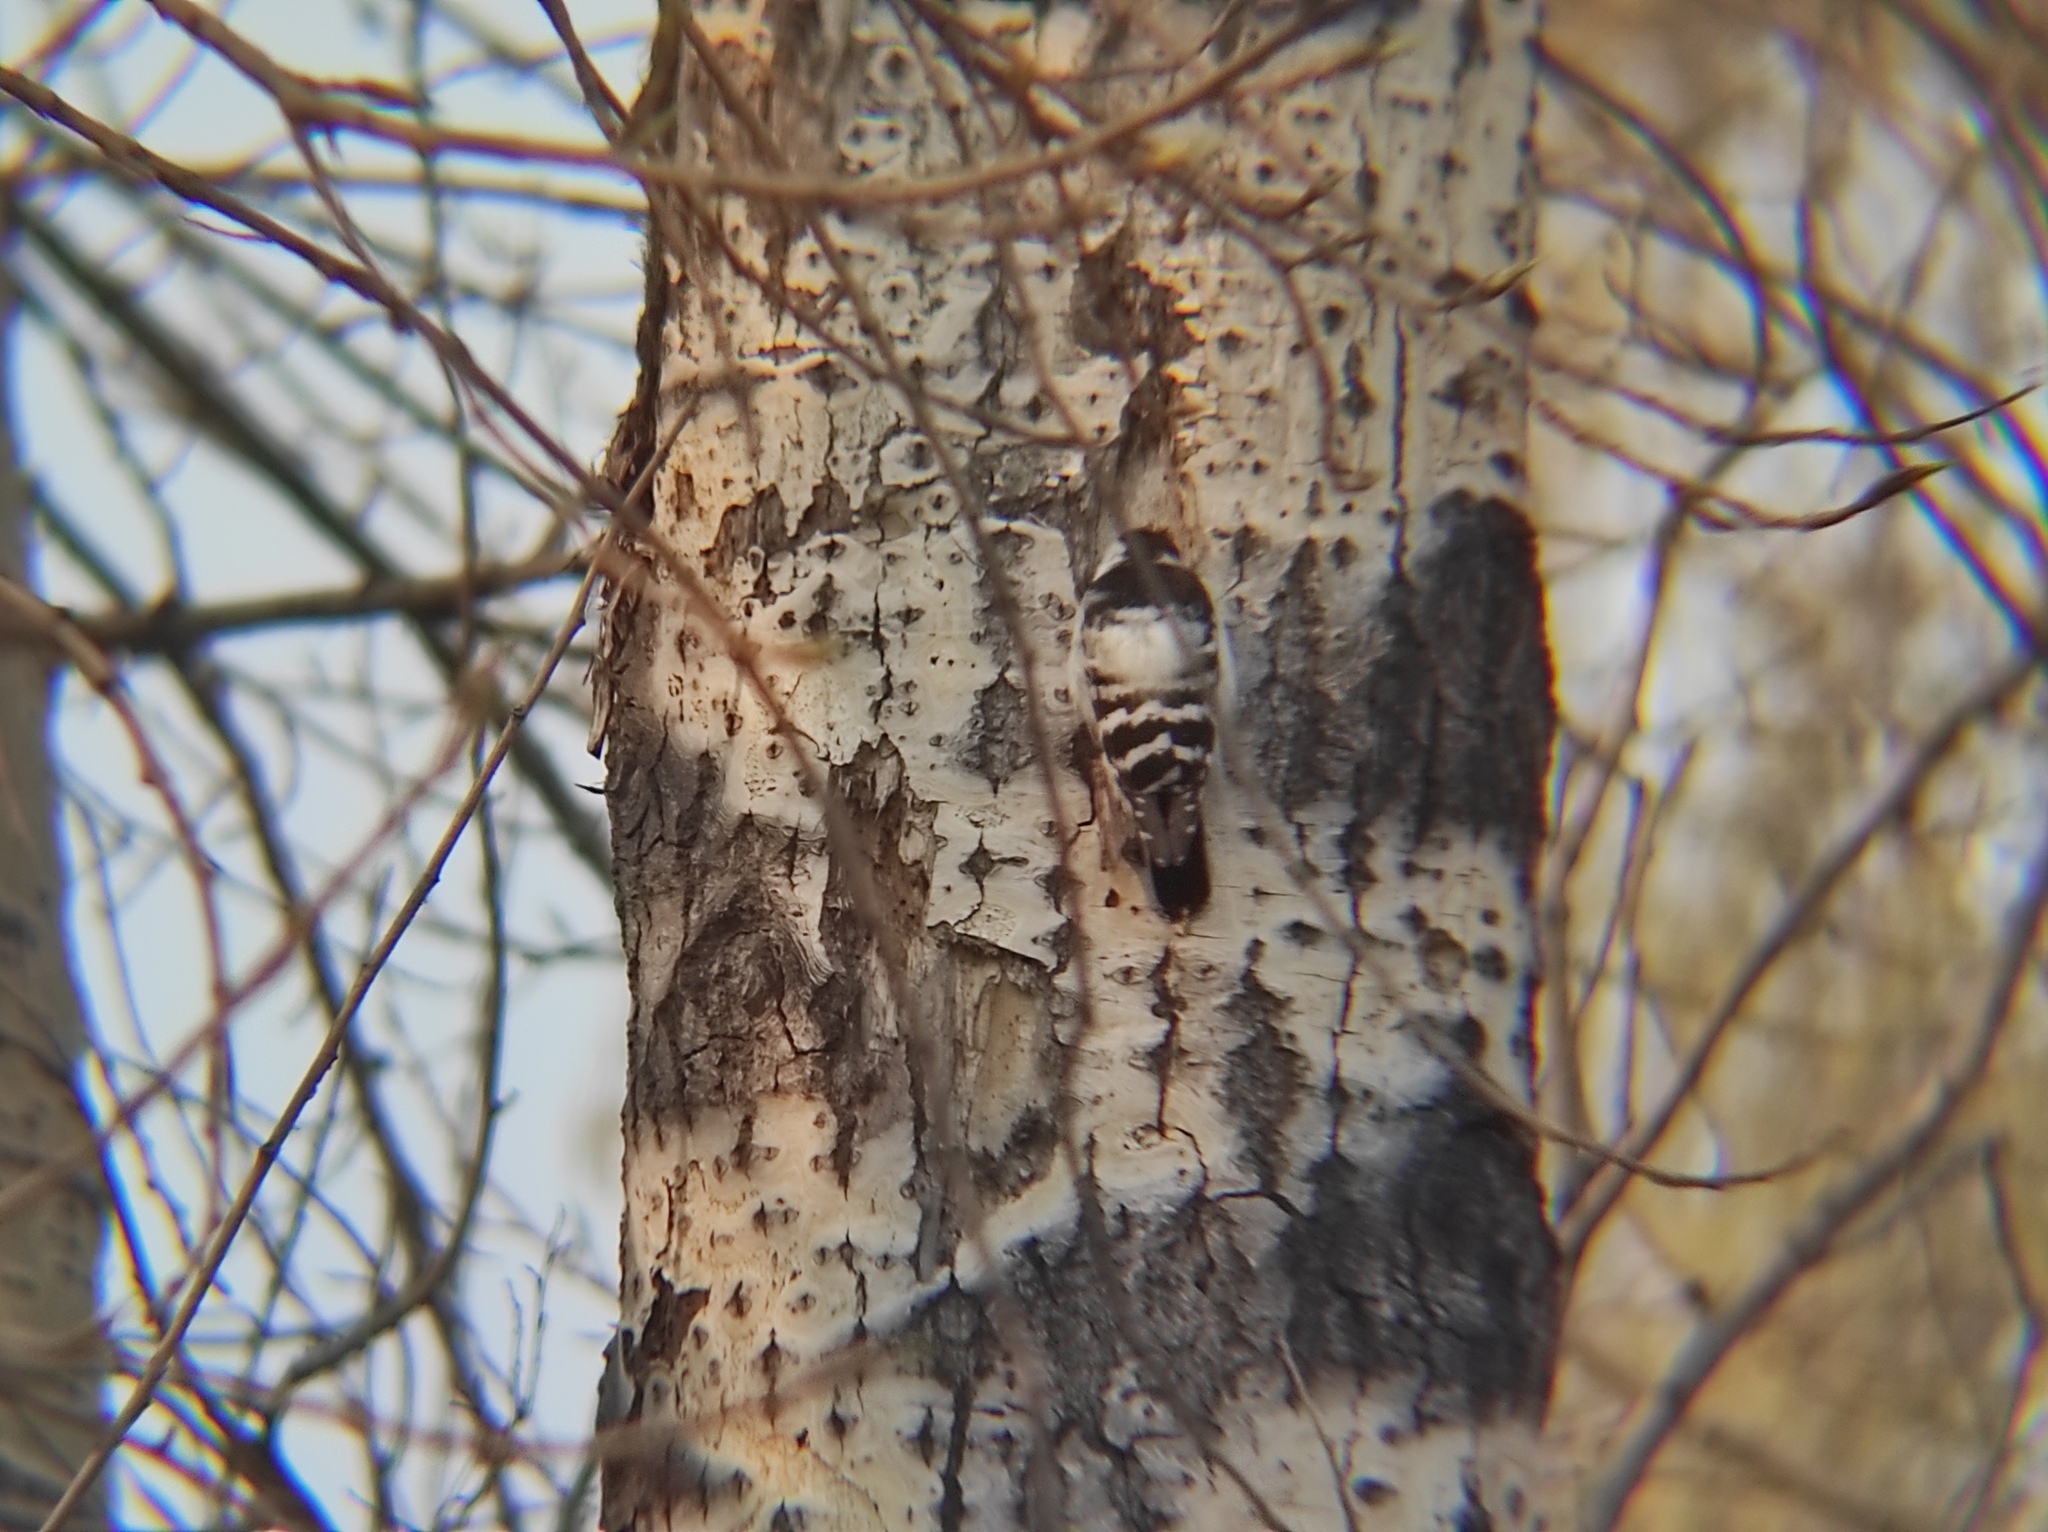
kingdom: Animalia
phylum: Chordata
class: Aves
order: Piciformes
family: Picidae
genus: Dryobates
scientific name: Dryobates minor
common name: Lesser spotted woodpecker
